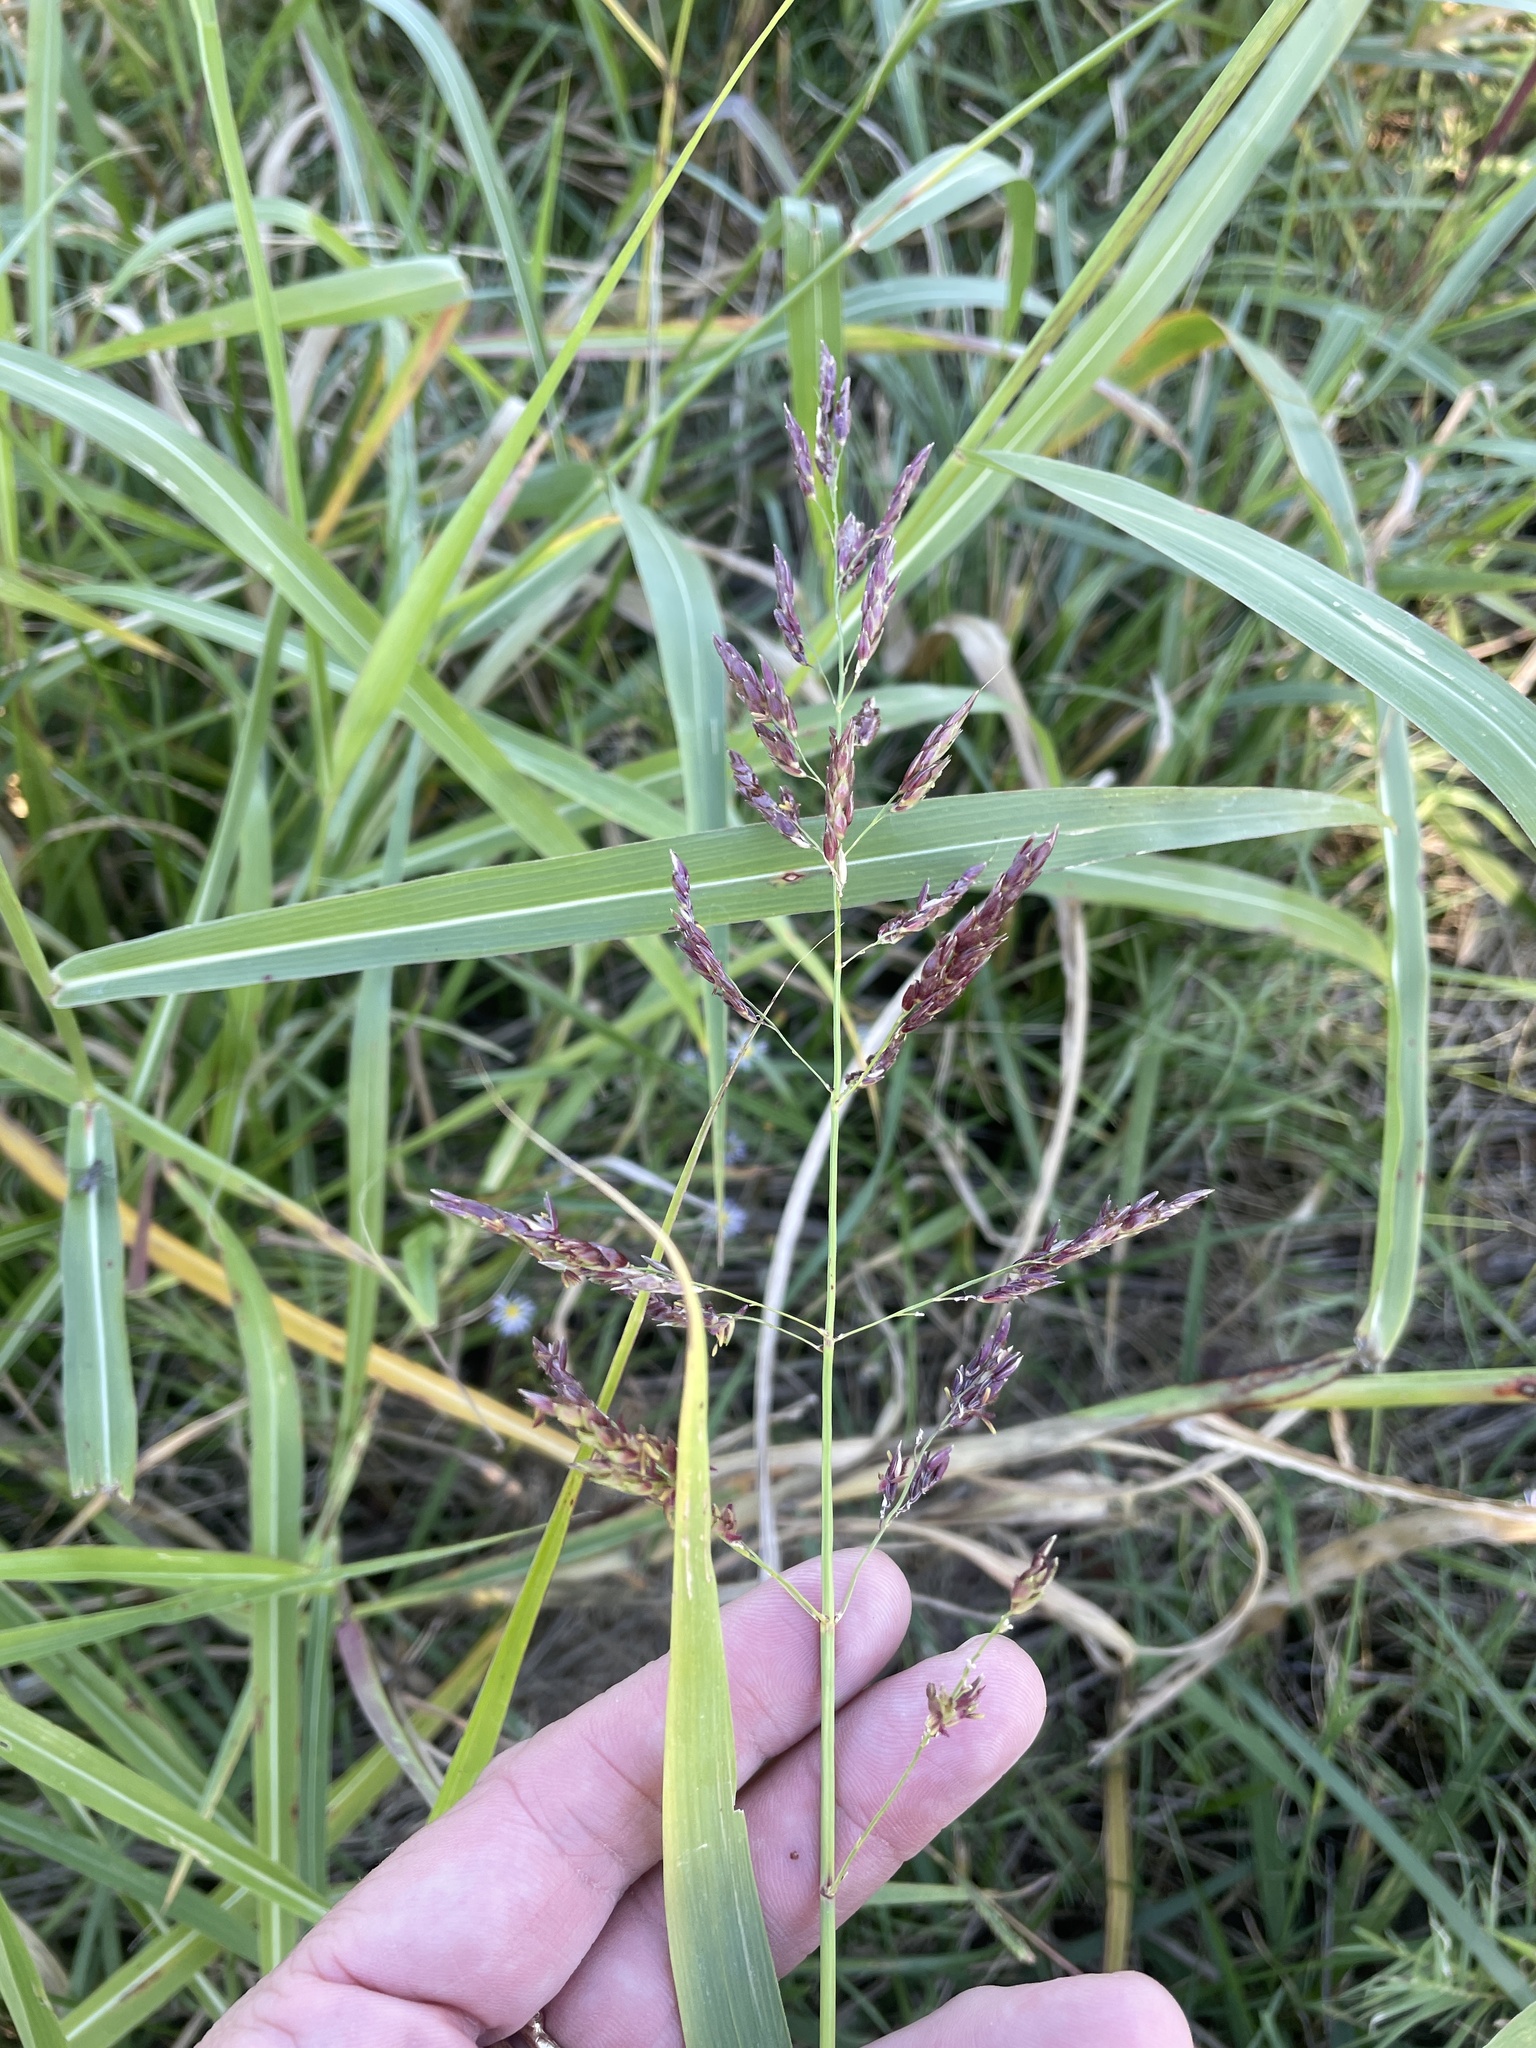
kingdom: Plantae
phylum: Tracheophyta
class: Liliopsida
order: Poales
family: Poaceae
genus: Sorghum
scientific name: Sorghum halepense
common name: Johnson-grass
